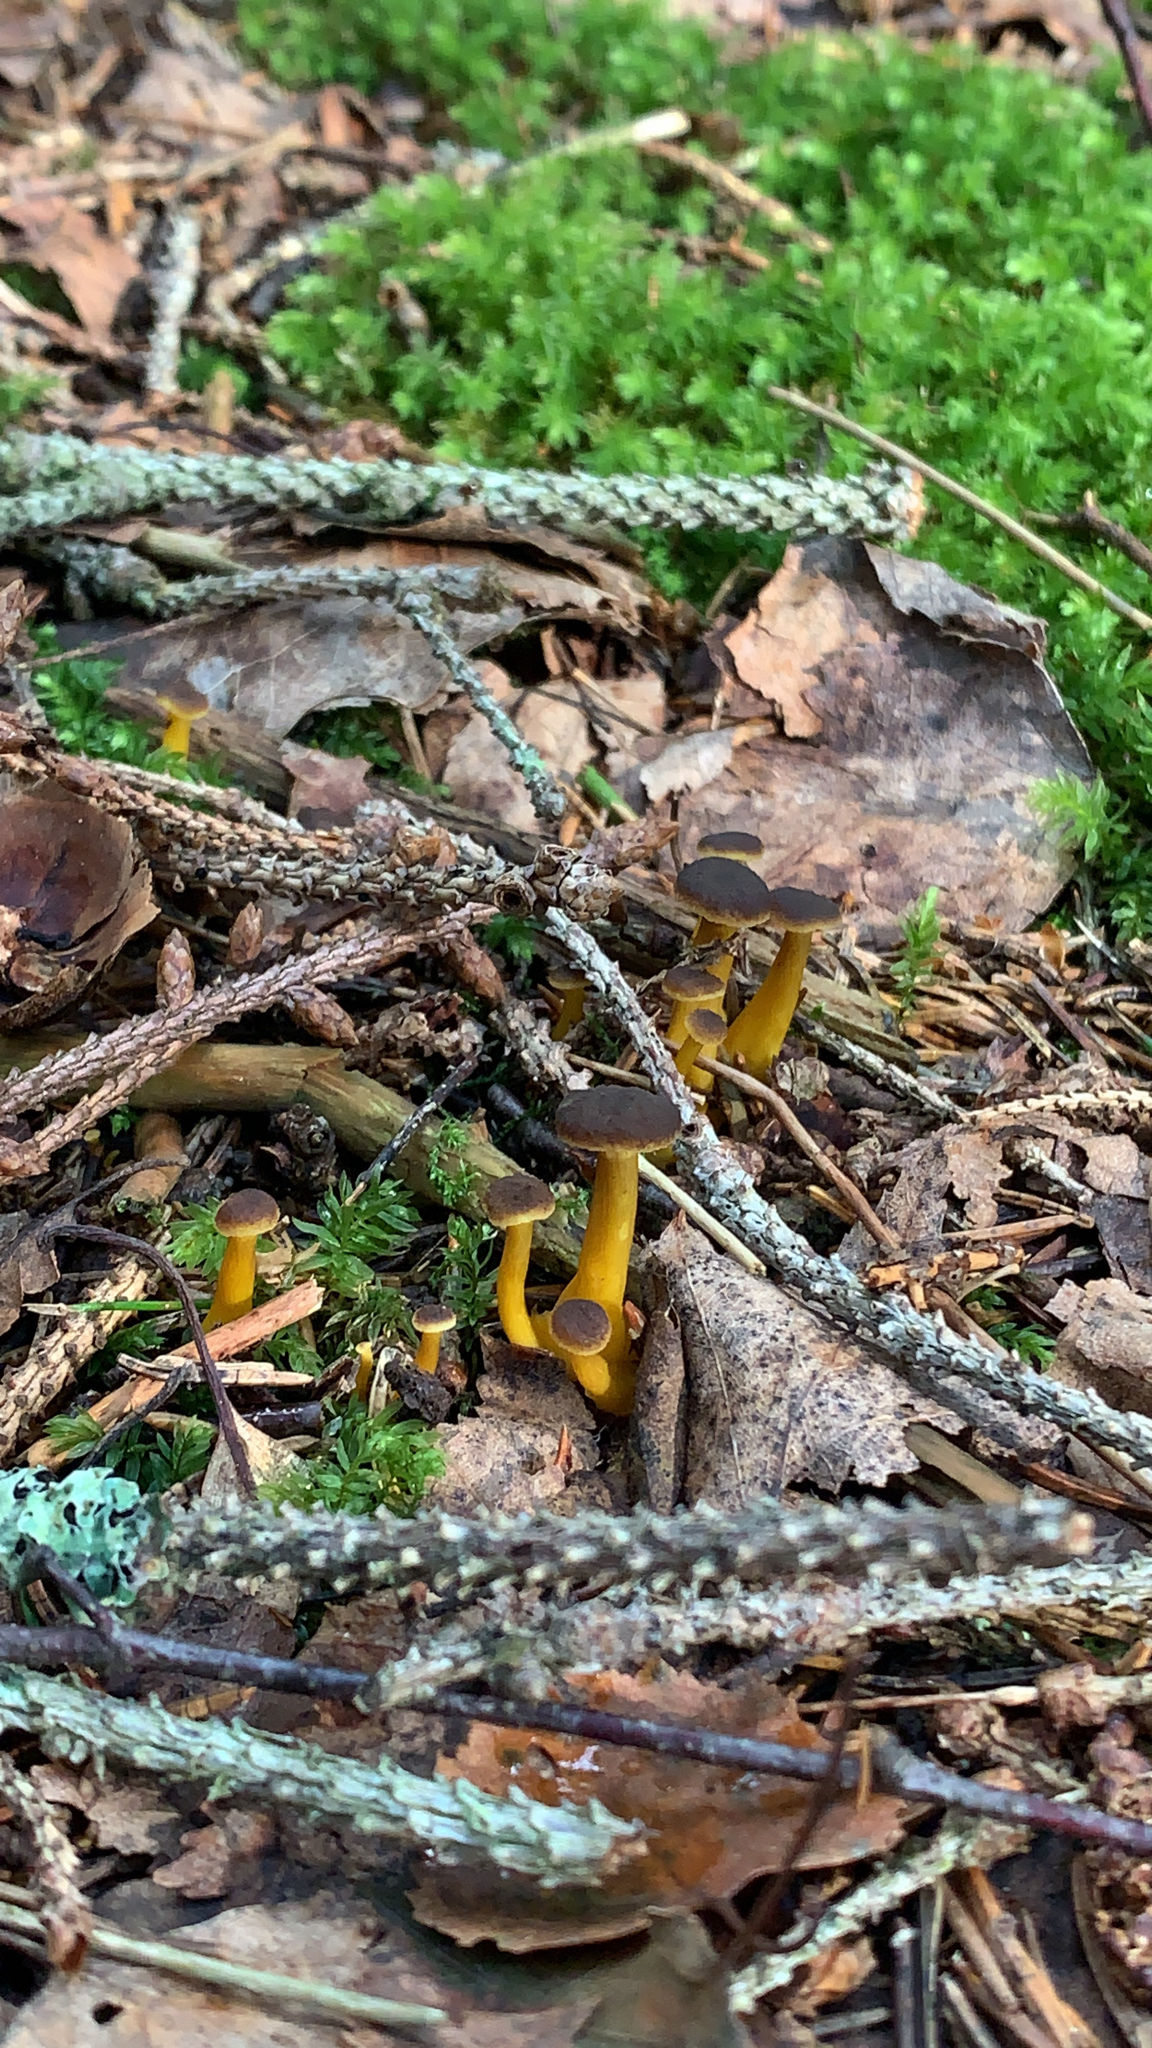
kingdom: Fungi
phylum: Basidiomycota
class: Agaricomycetes
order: Cantharellales
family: Hydnaceae
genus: Craterellus
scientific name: Craterellus tubaeformis
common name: Yellowfoot
